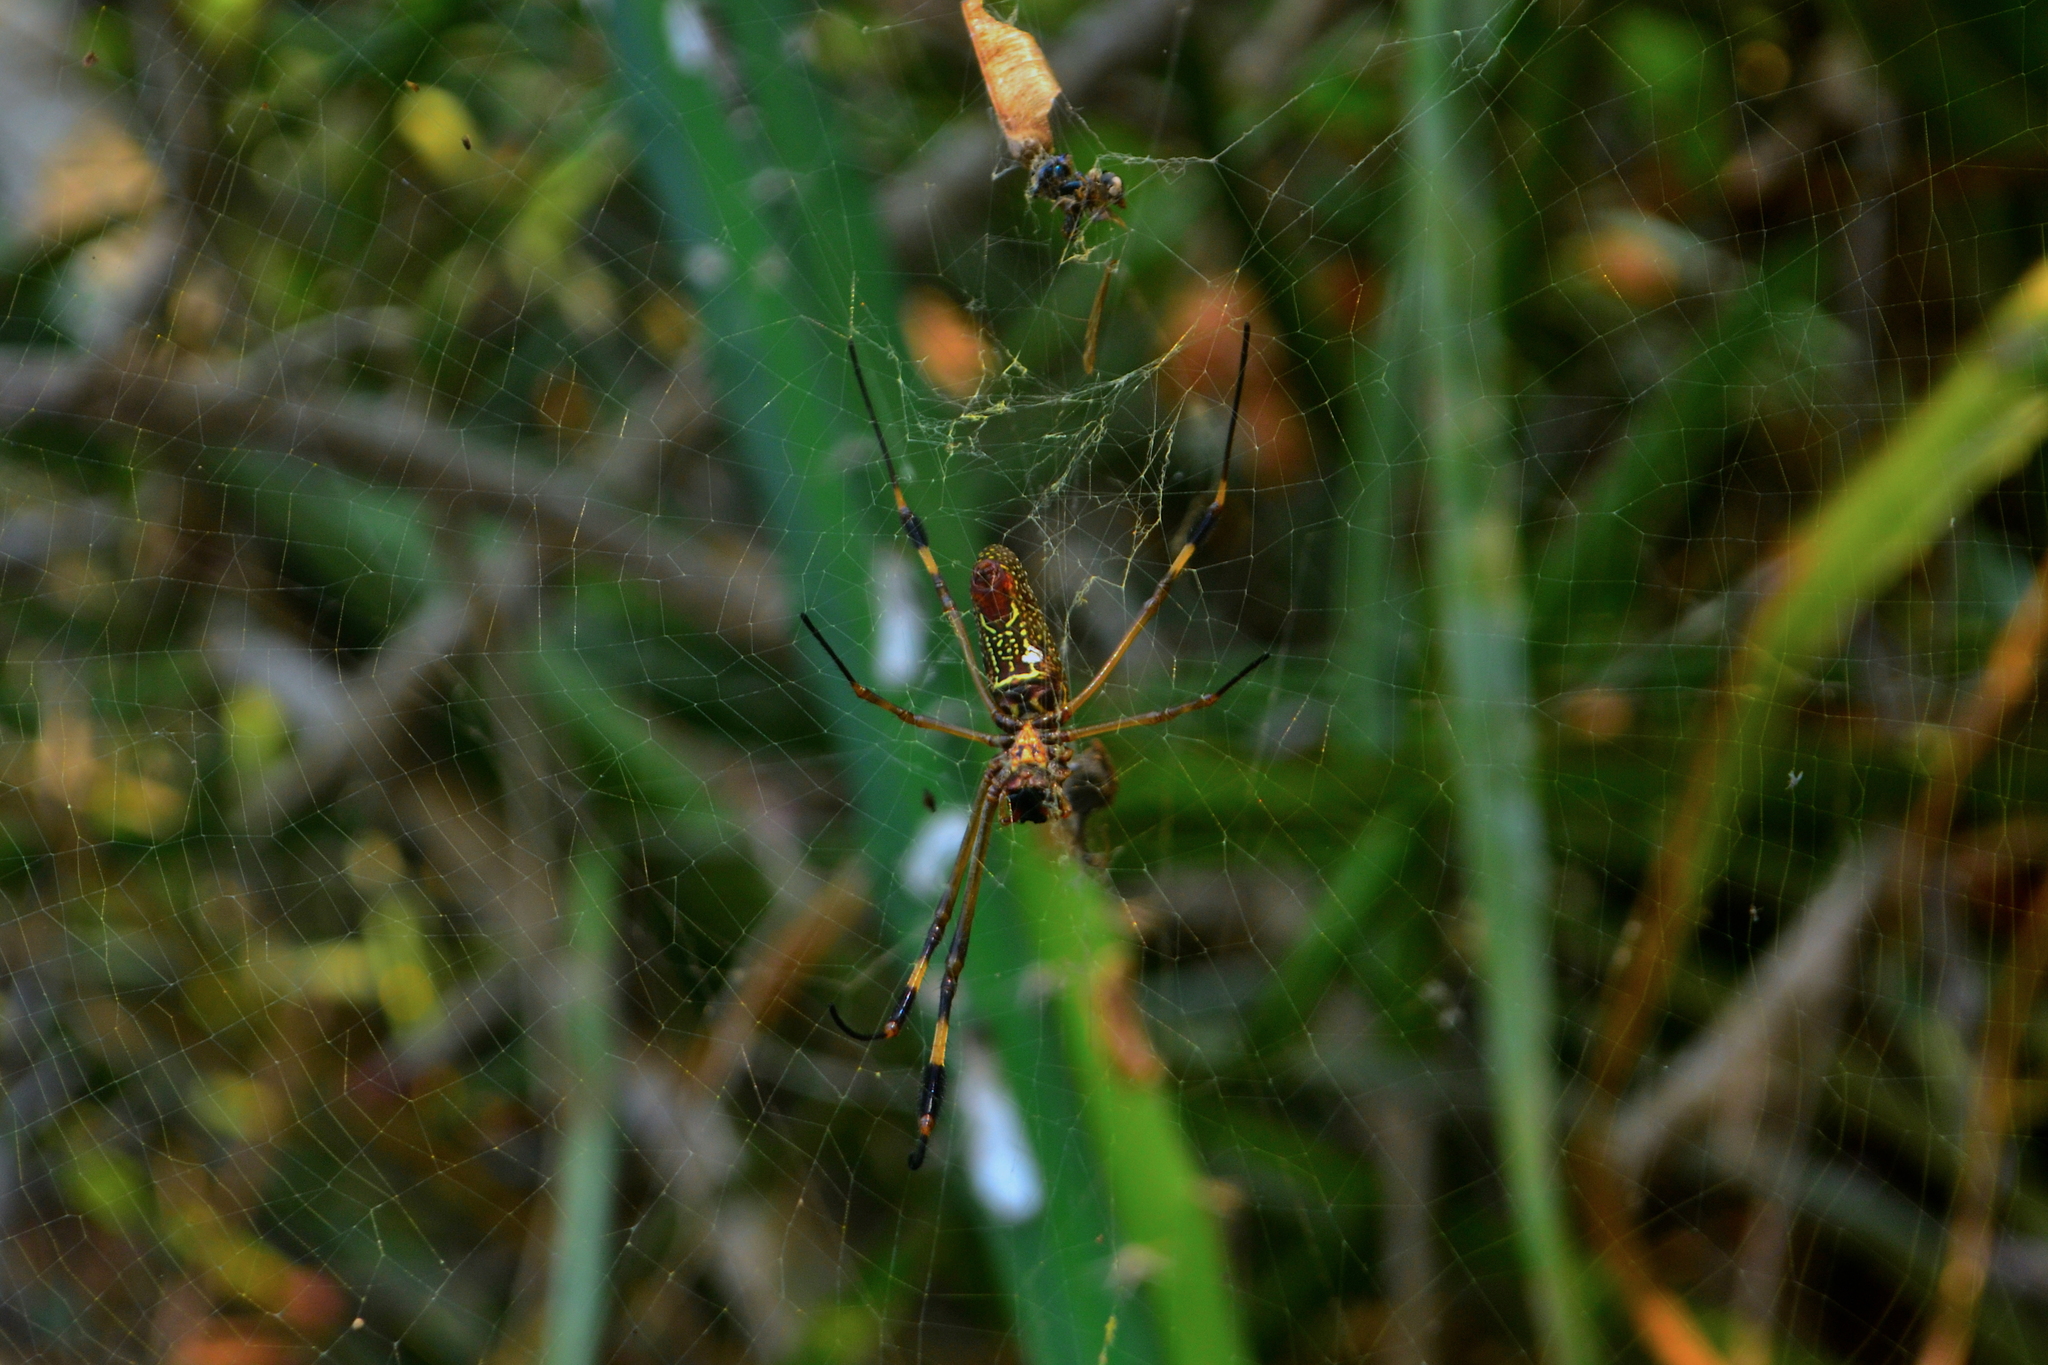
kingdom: Animalia
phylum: Arthropoda
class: Arachnida
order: Araneae
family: Araneidae
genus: Trichonephila
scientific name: Trichonephila clavipes
